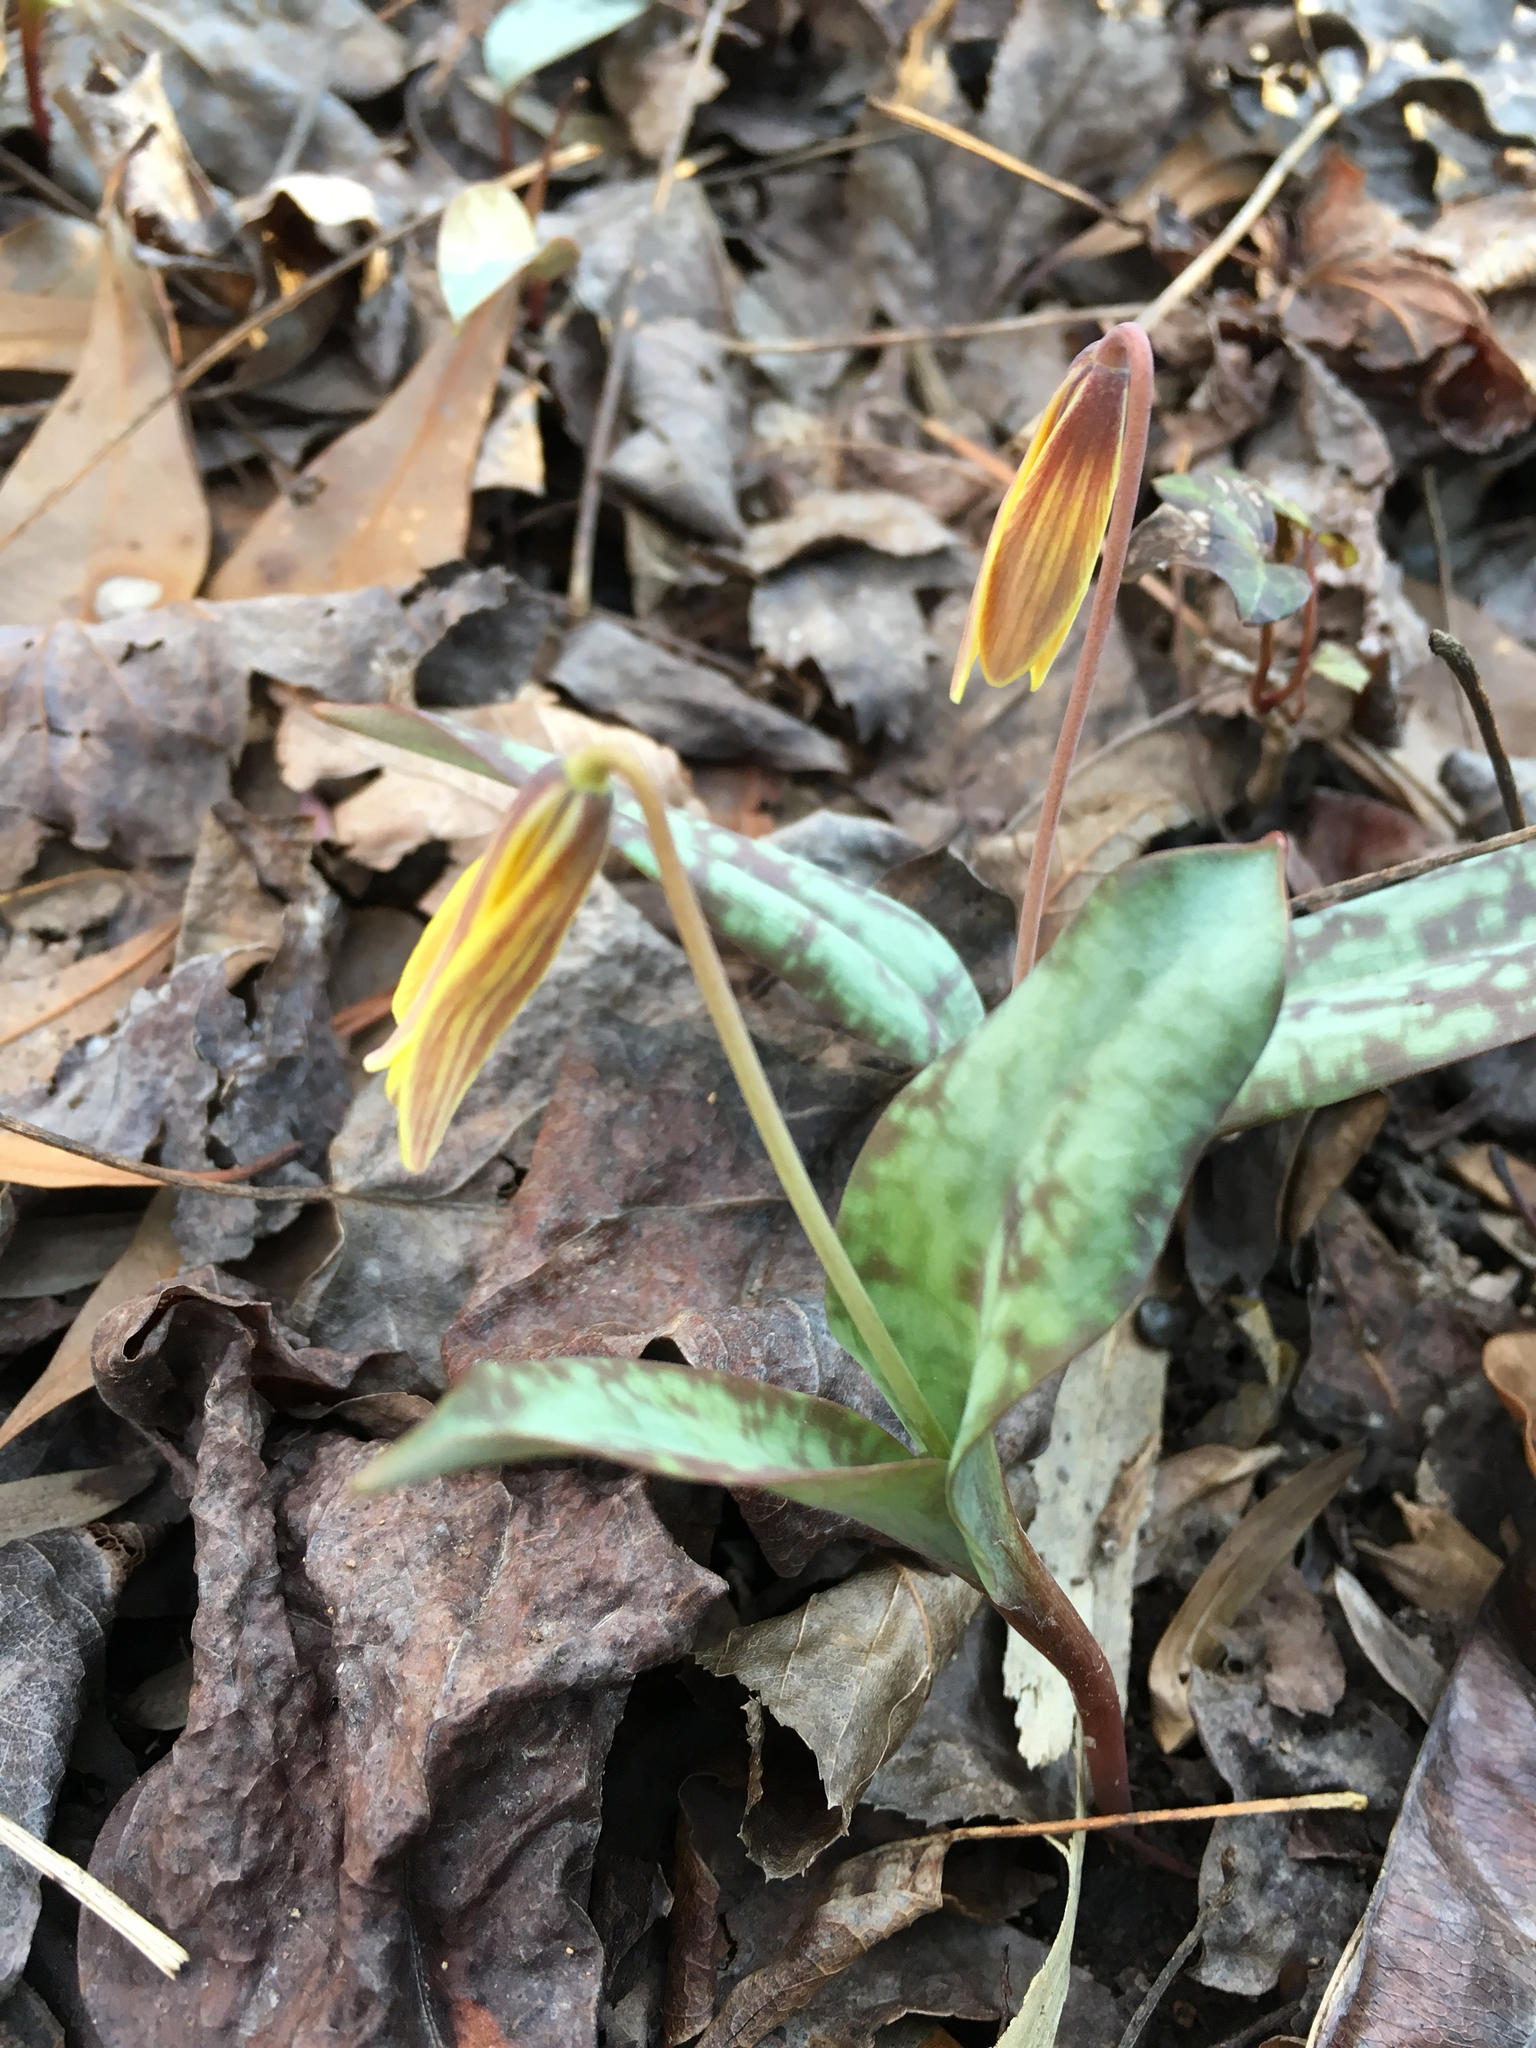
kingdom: Plantae
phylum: Tracheophyta
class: Liliopsida
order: Liliales
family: Liliaceae
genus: Erythronium
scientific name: Erythronium umbilicatum
